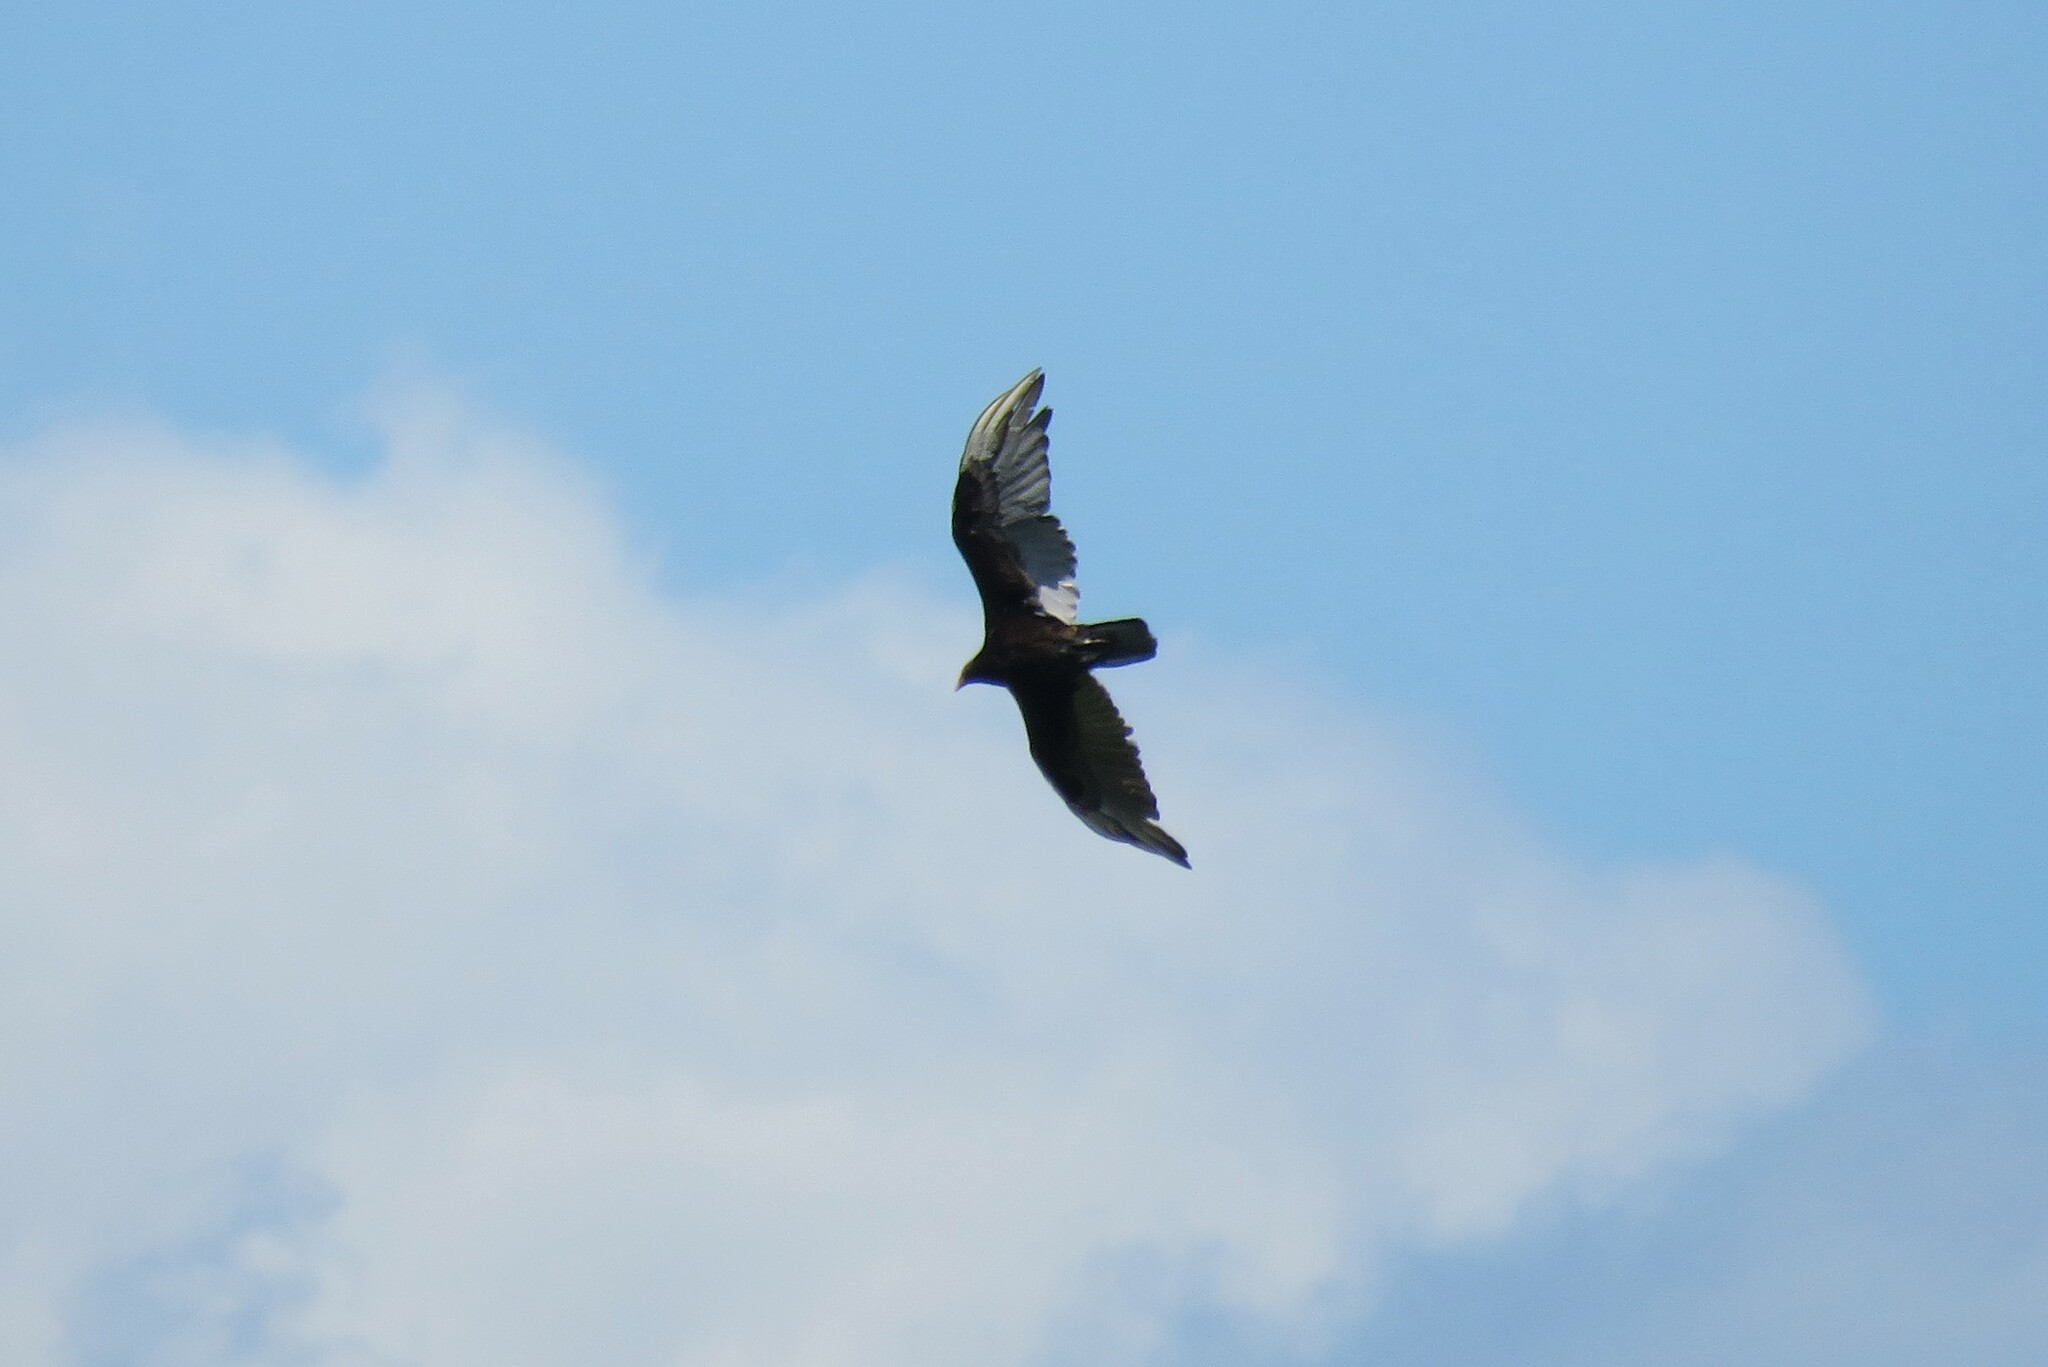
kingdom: Animalia
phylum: Chordata
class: Aves
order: Accipitriformes
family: Cathartidae
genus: Cathartes
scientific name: Cathartes aura
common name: Turkey vulture
